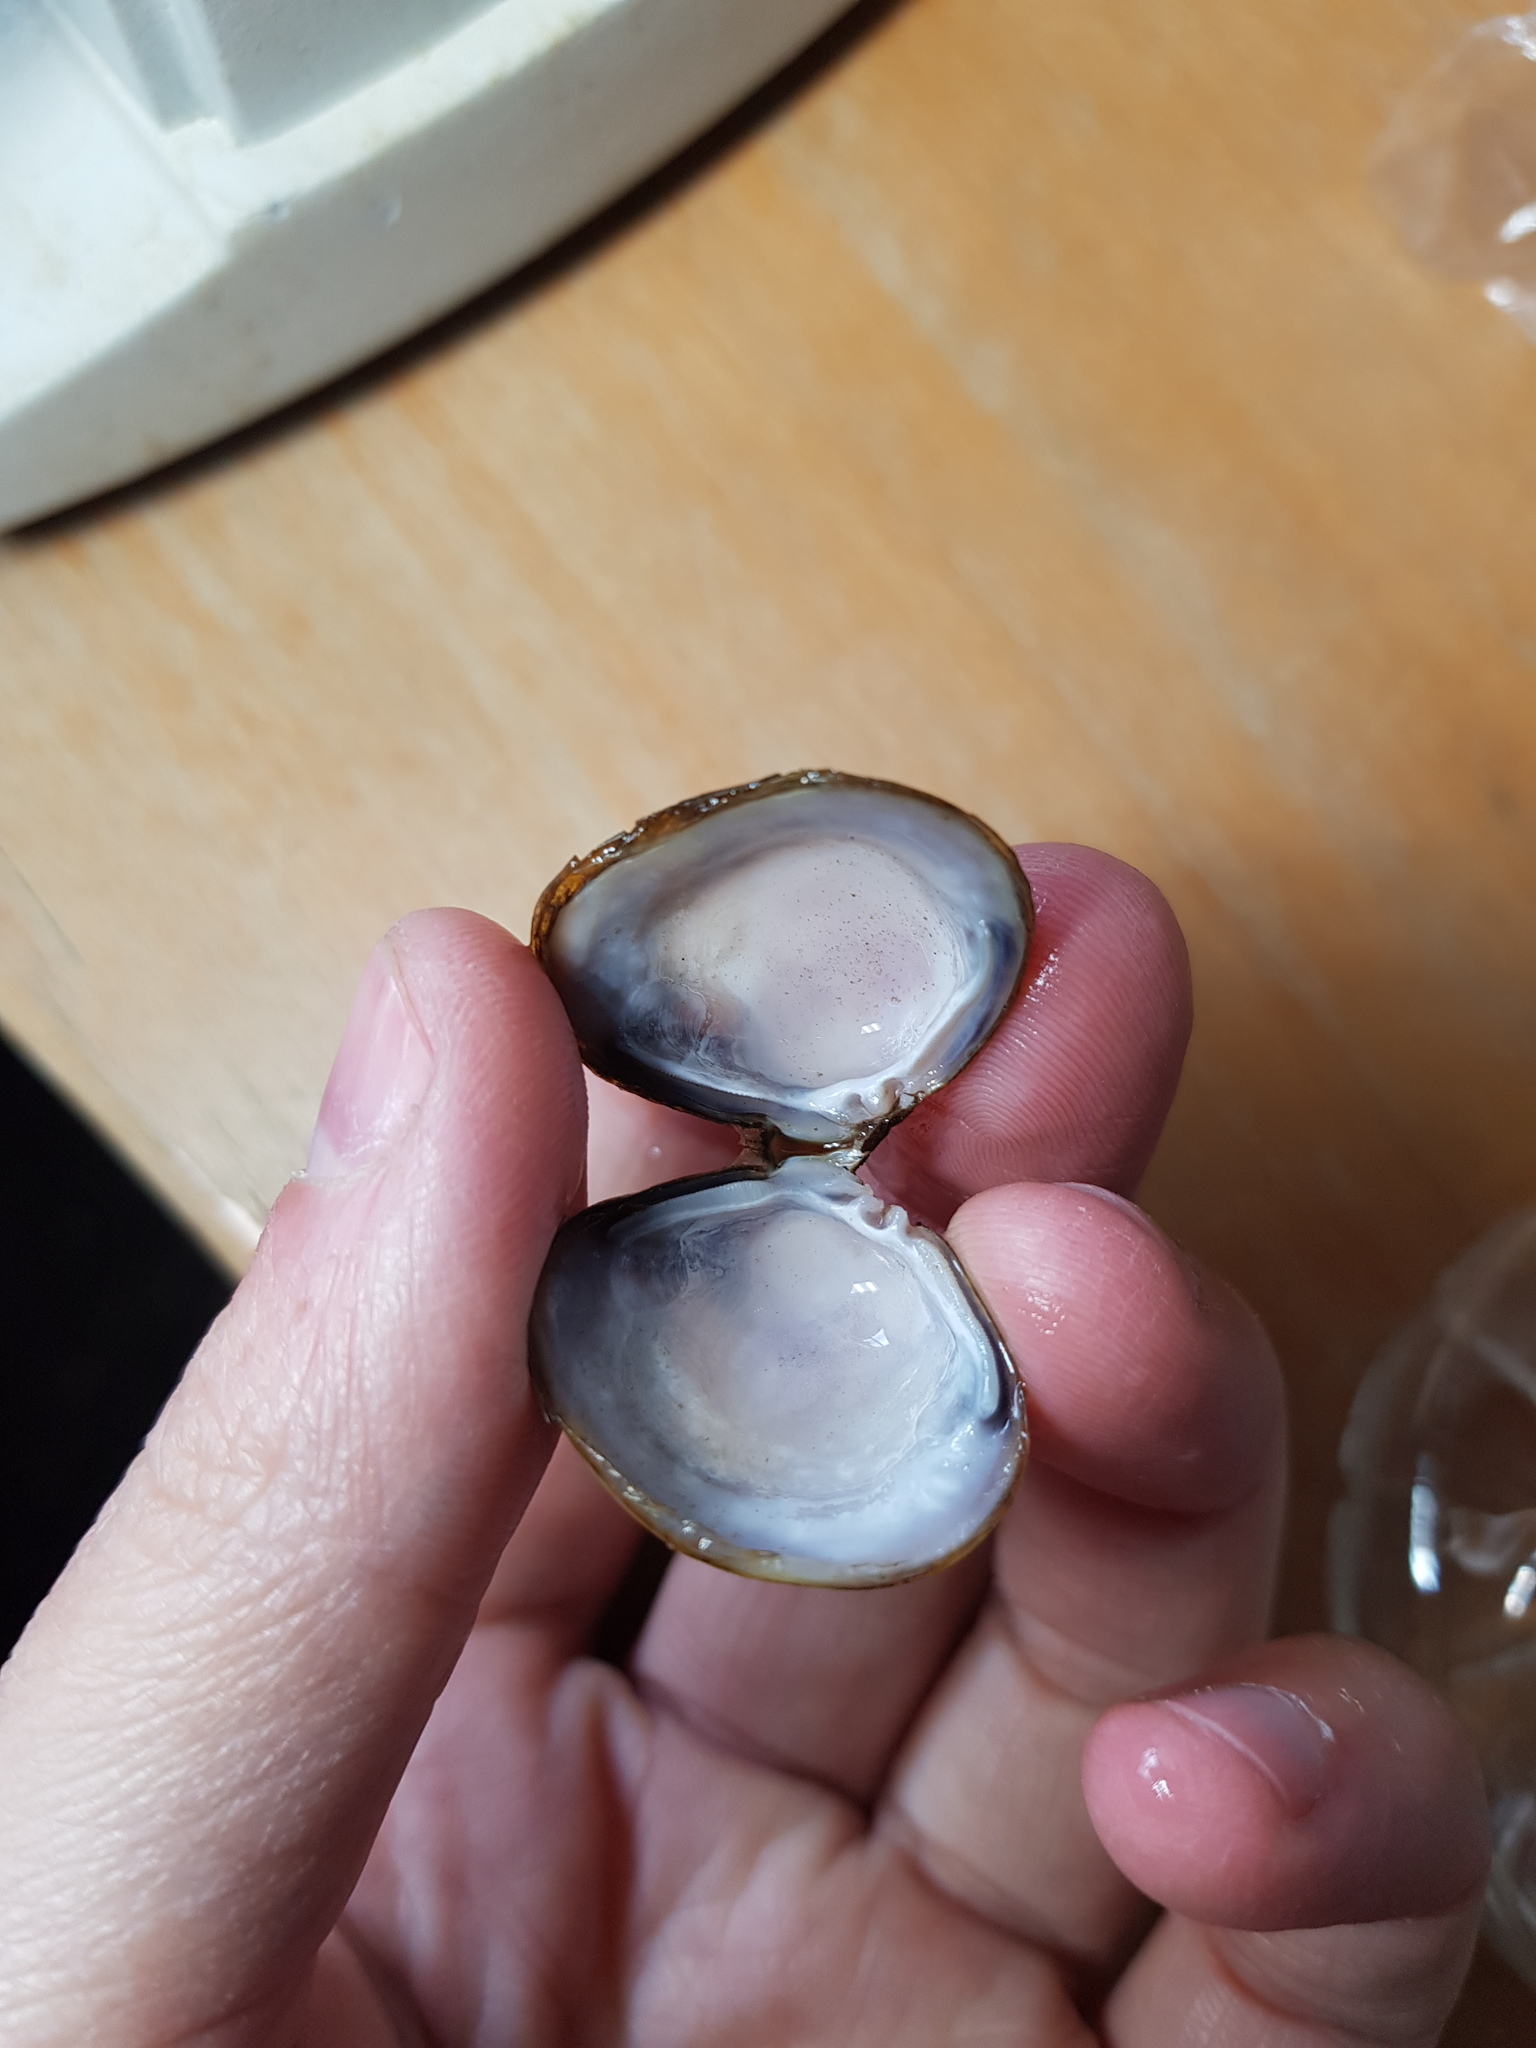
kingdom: Animalia
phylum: Mollusca
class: Bivalvia
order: Venerida
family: Cyrenidae
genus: Corbicula
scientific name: Corbicula fluminea
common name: Asian clam
